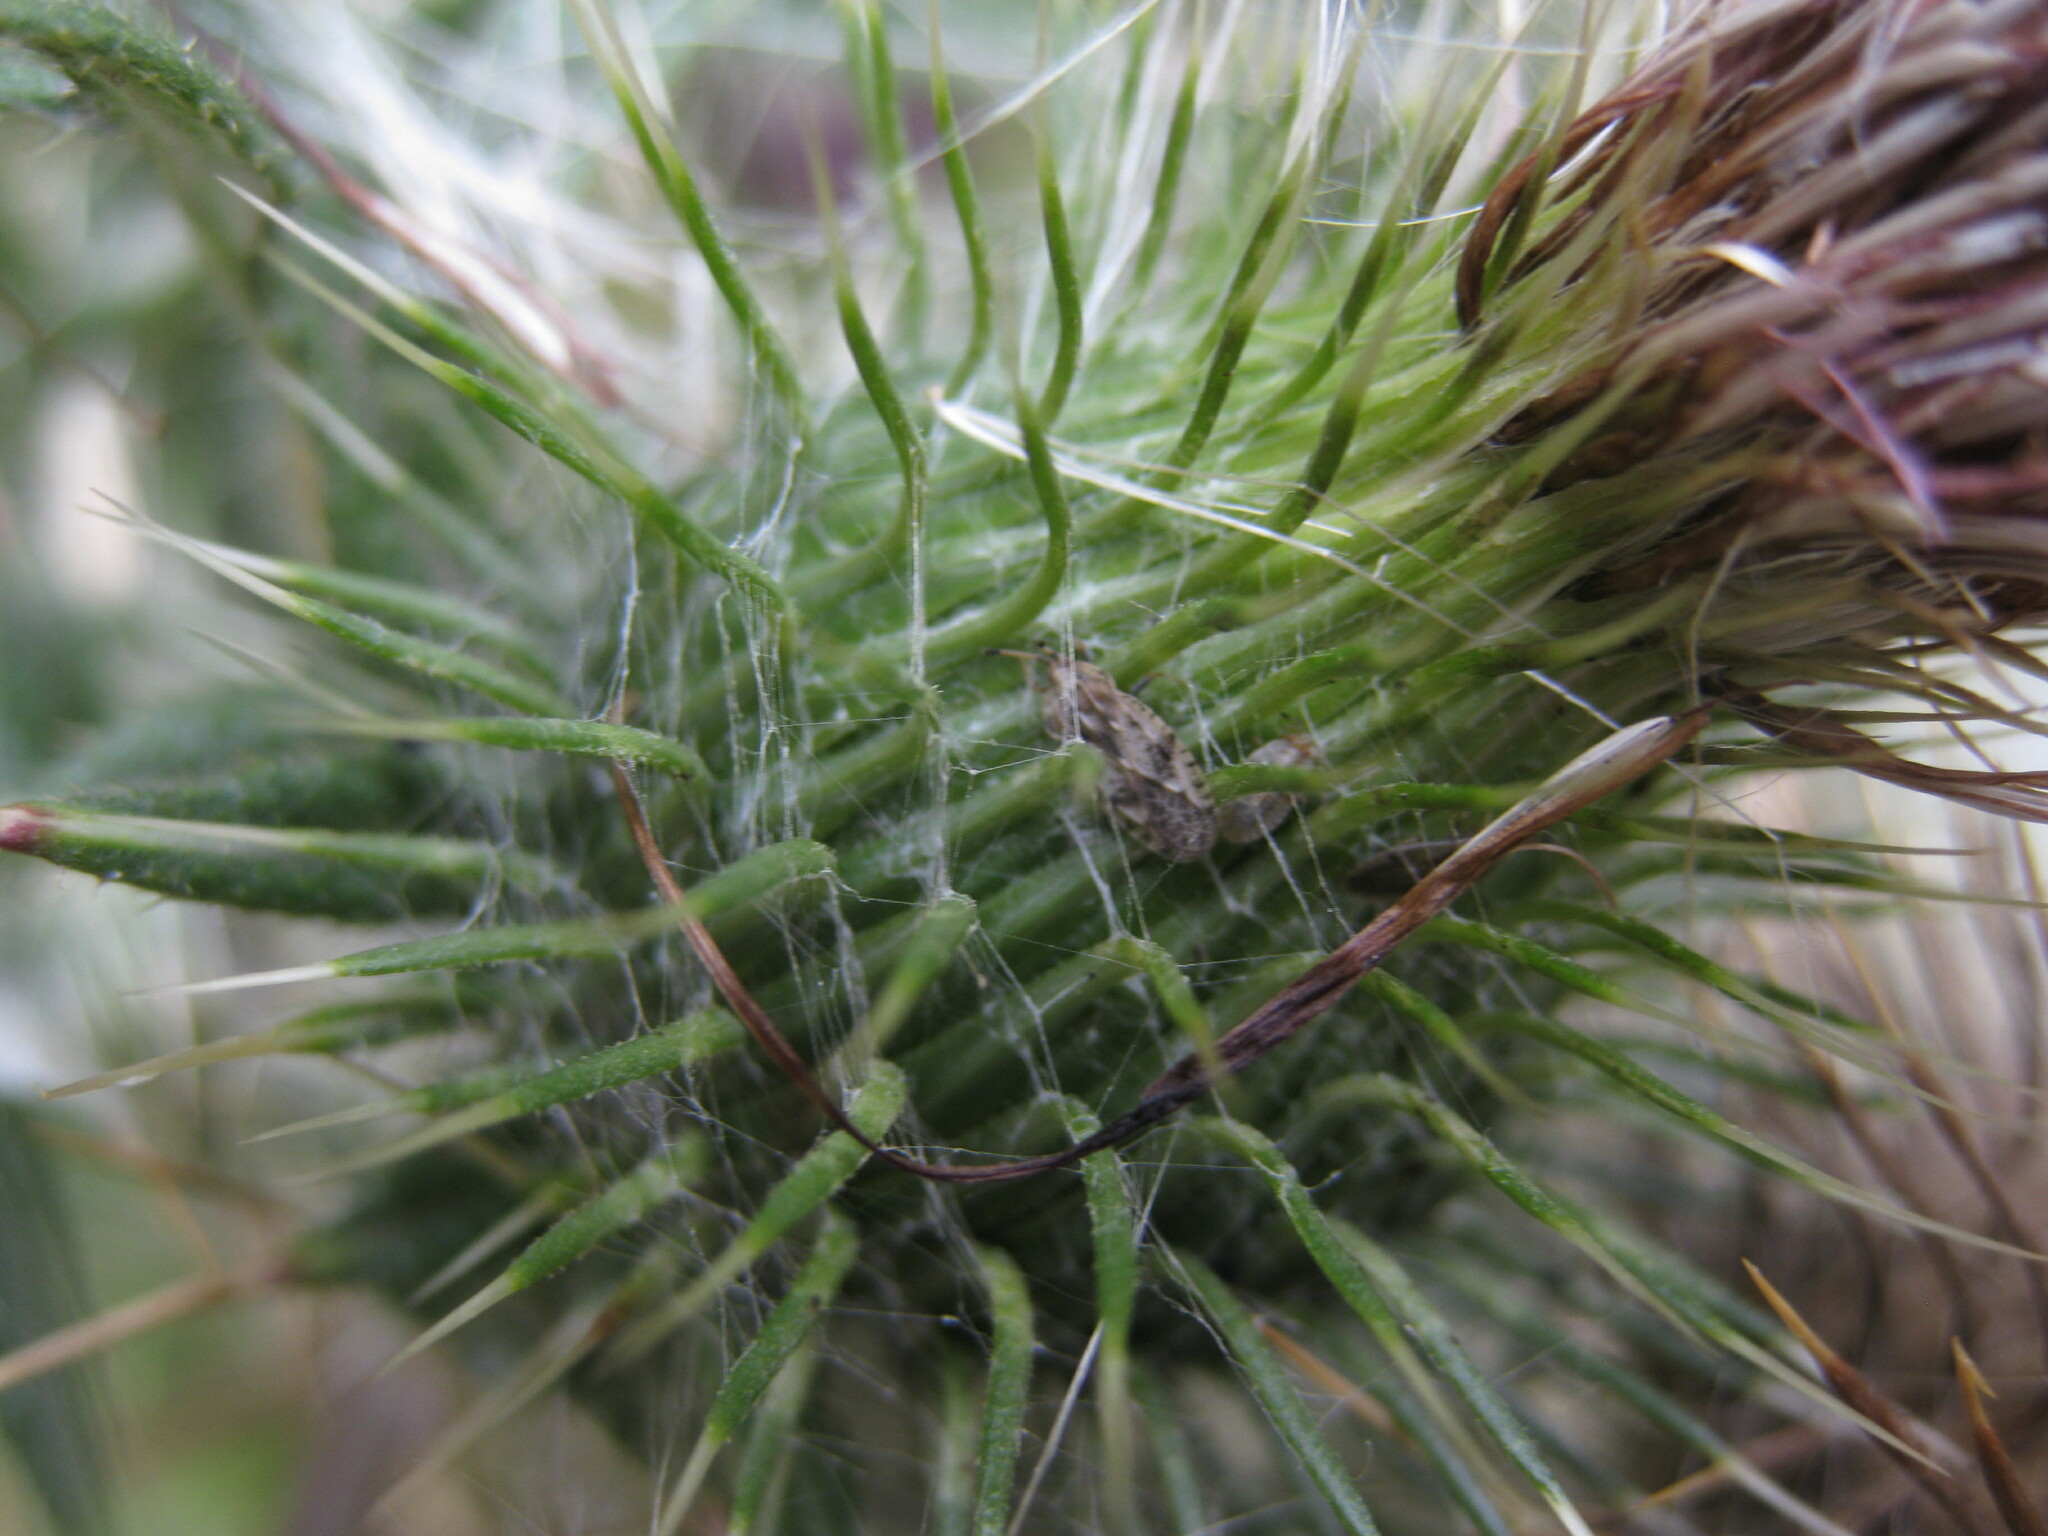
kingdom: Animalia
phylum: Arthropoda
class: Insecta
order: Hemiptera
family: Tingidae
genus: Tingis
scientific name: Tingis cardui
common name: Spear thistle lacebug
